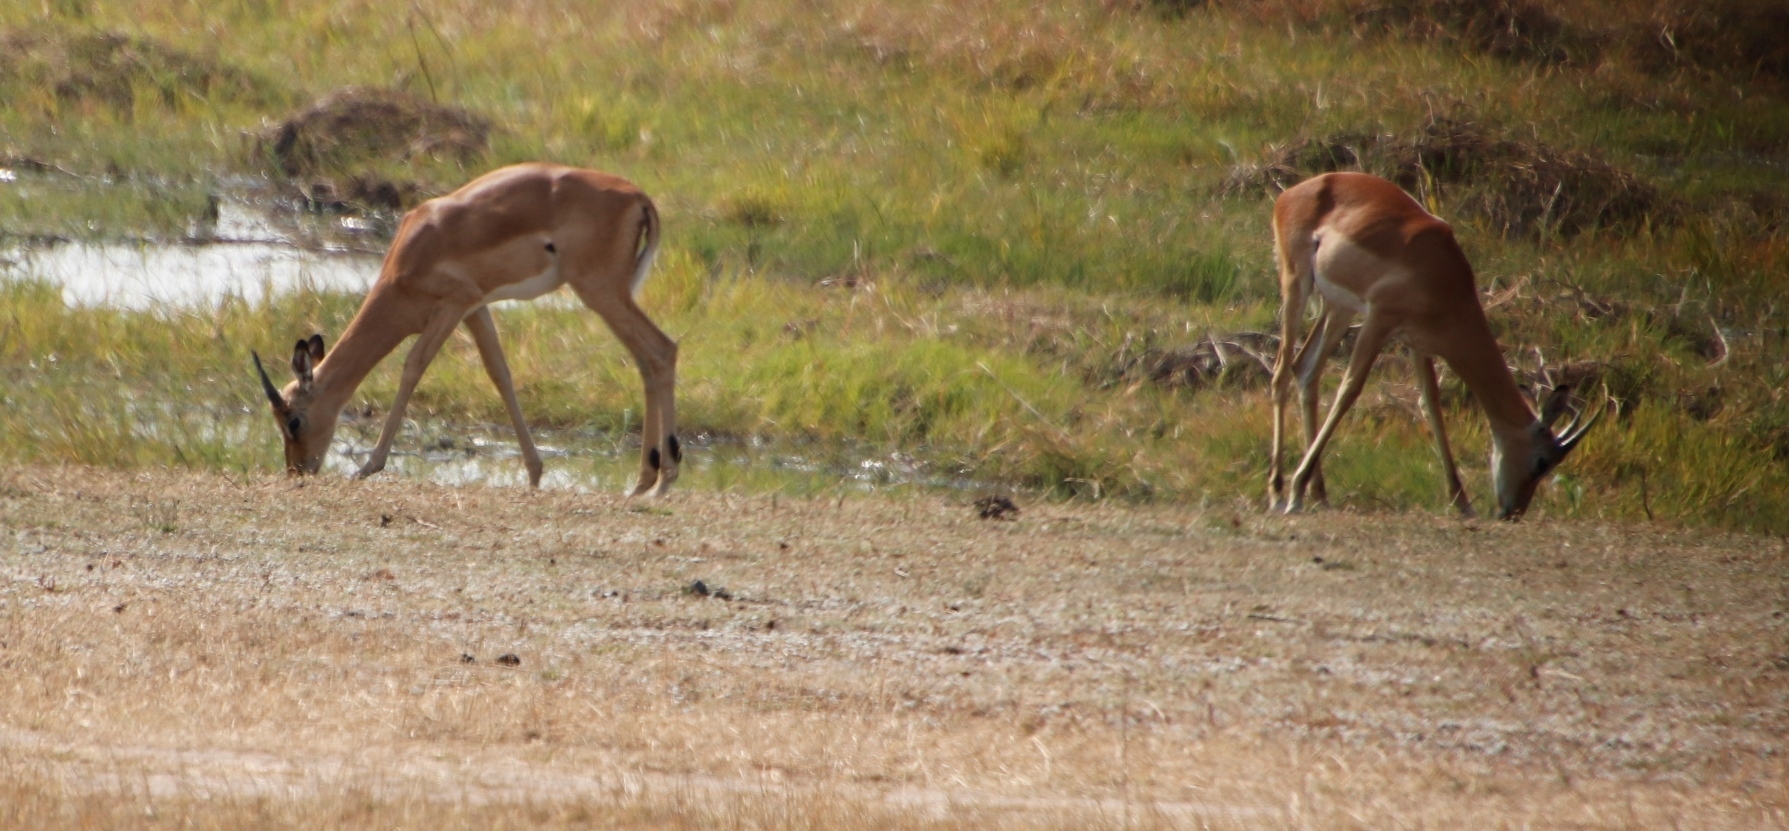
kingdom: Animalia
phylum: Chordata
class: Mammalia
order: Artiodactyla
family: Bovidae
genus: Aepyceros
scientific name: Aepyceros melampus
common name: Impala
